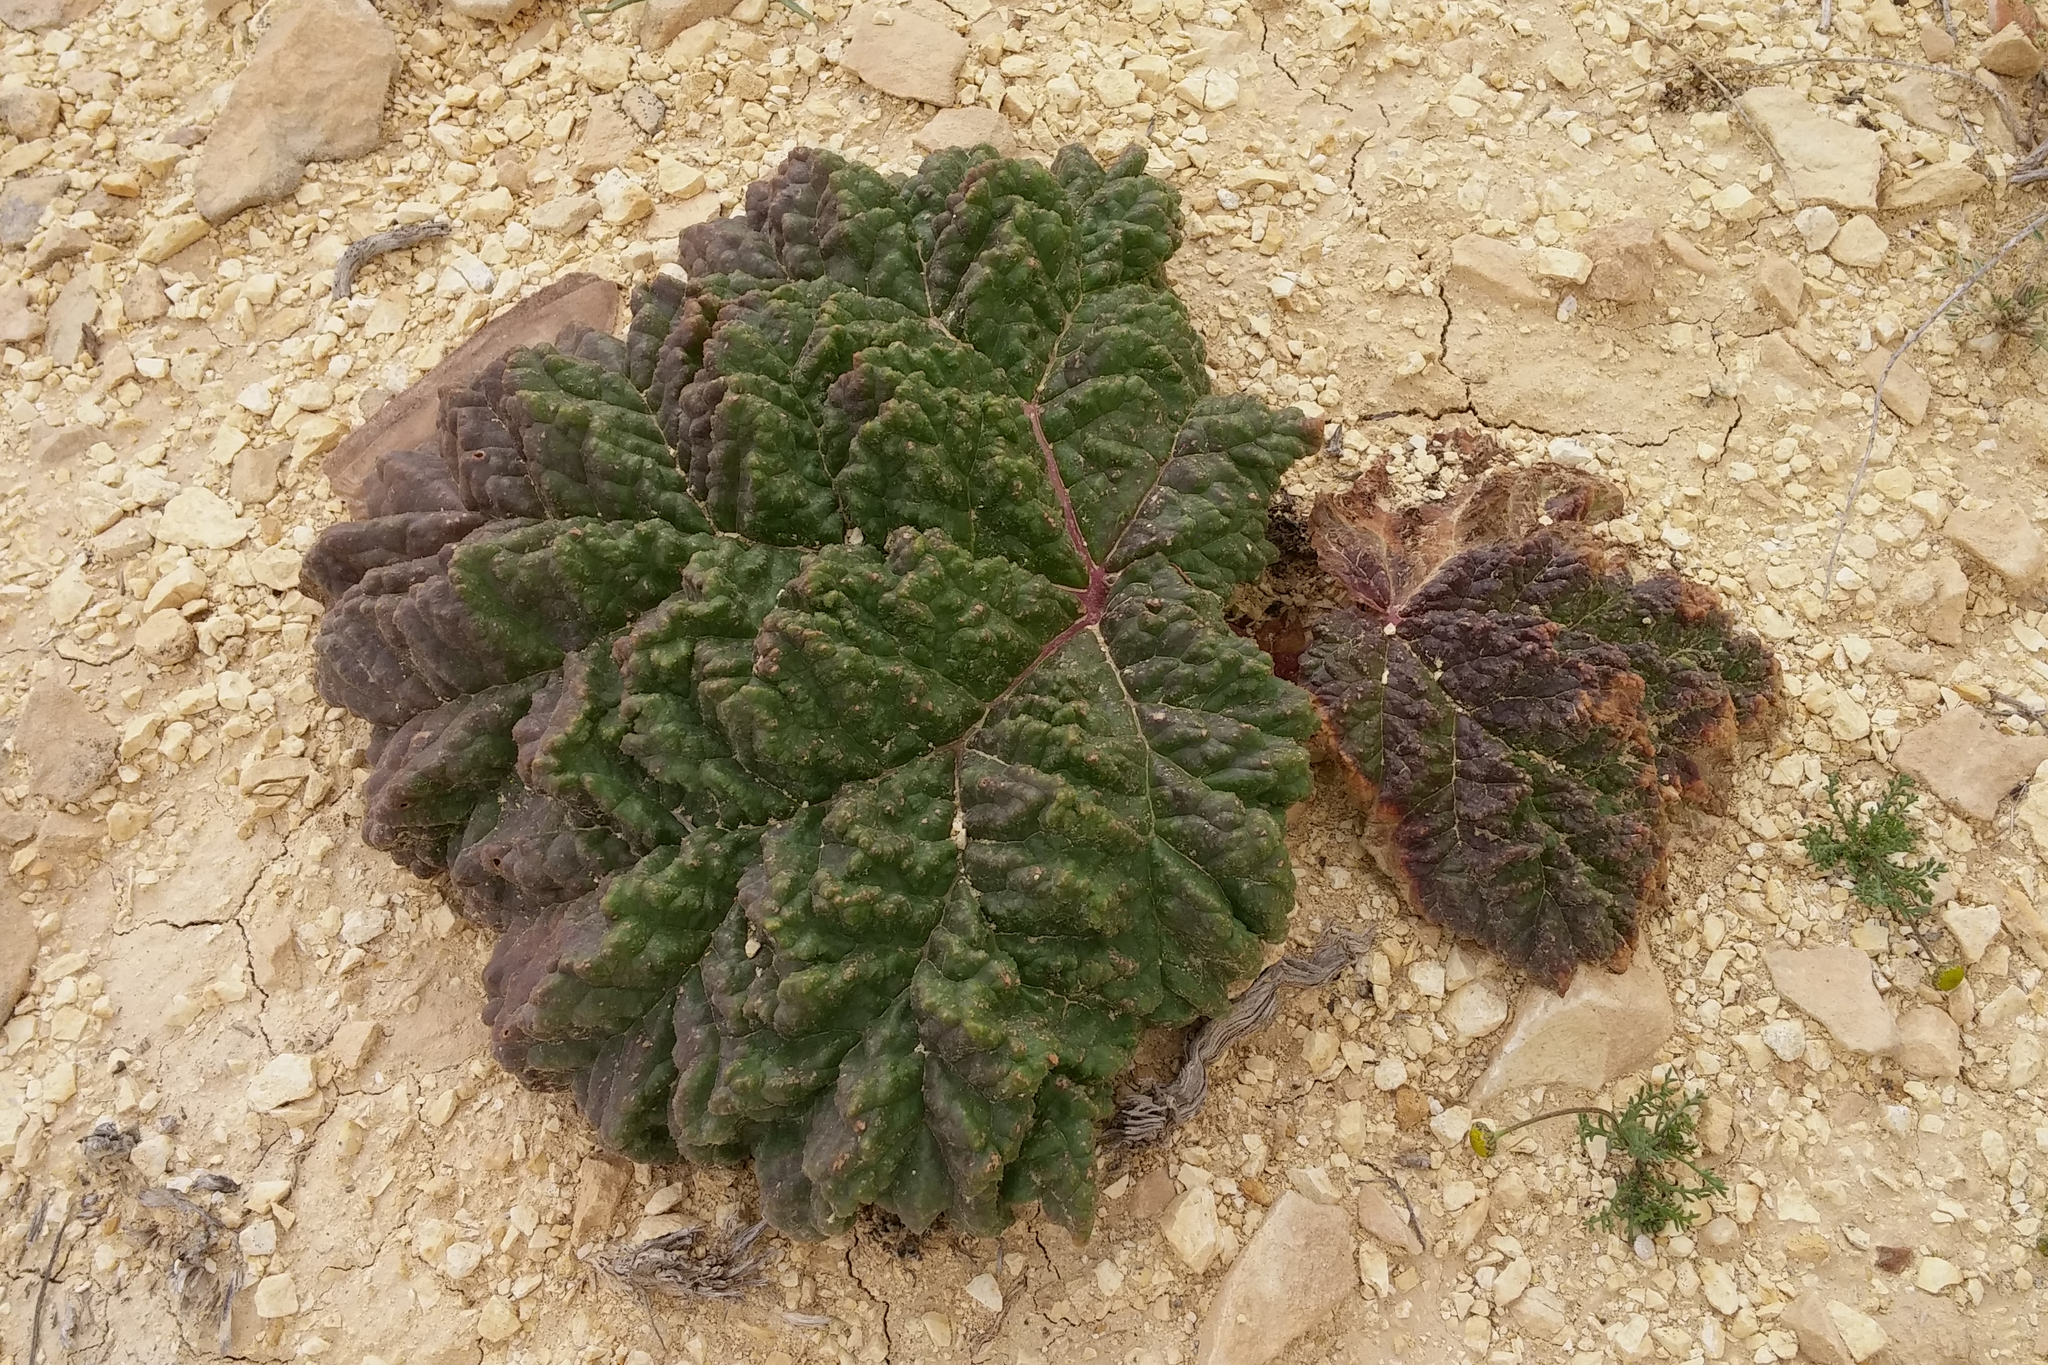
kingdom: Plantae
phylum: Tracheophyta
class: Magnoliopsida
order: Caryophyllales
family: Polygonaceae
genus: Rheum
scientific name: Rheum palaestinum
